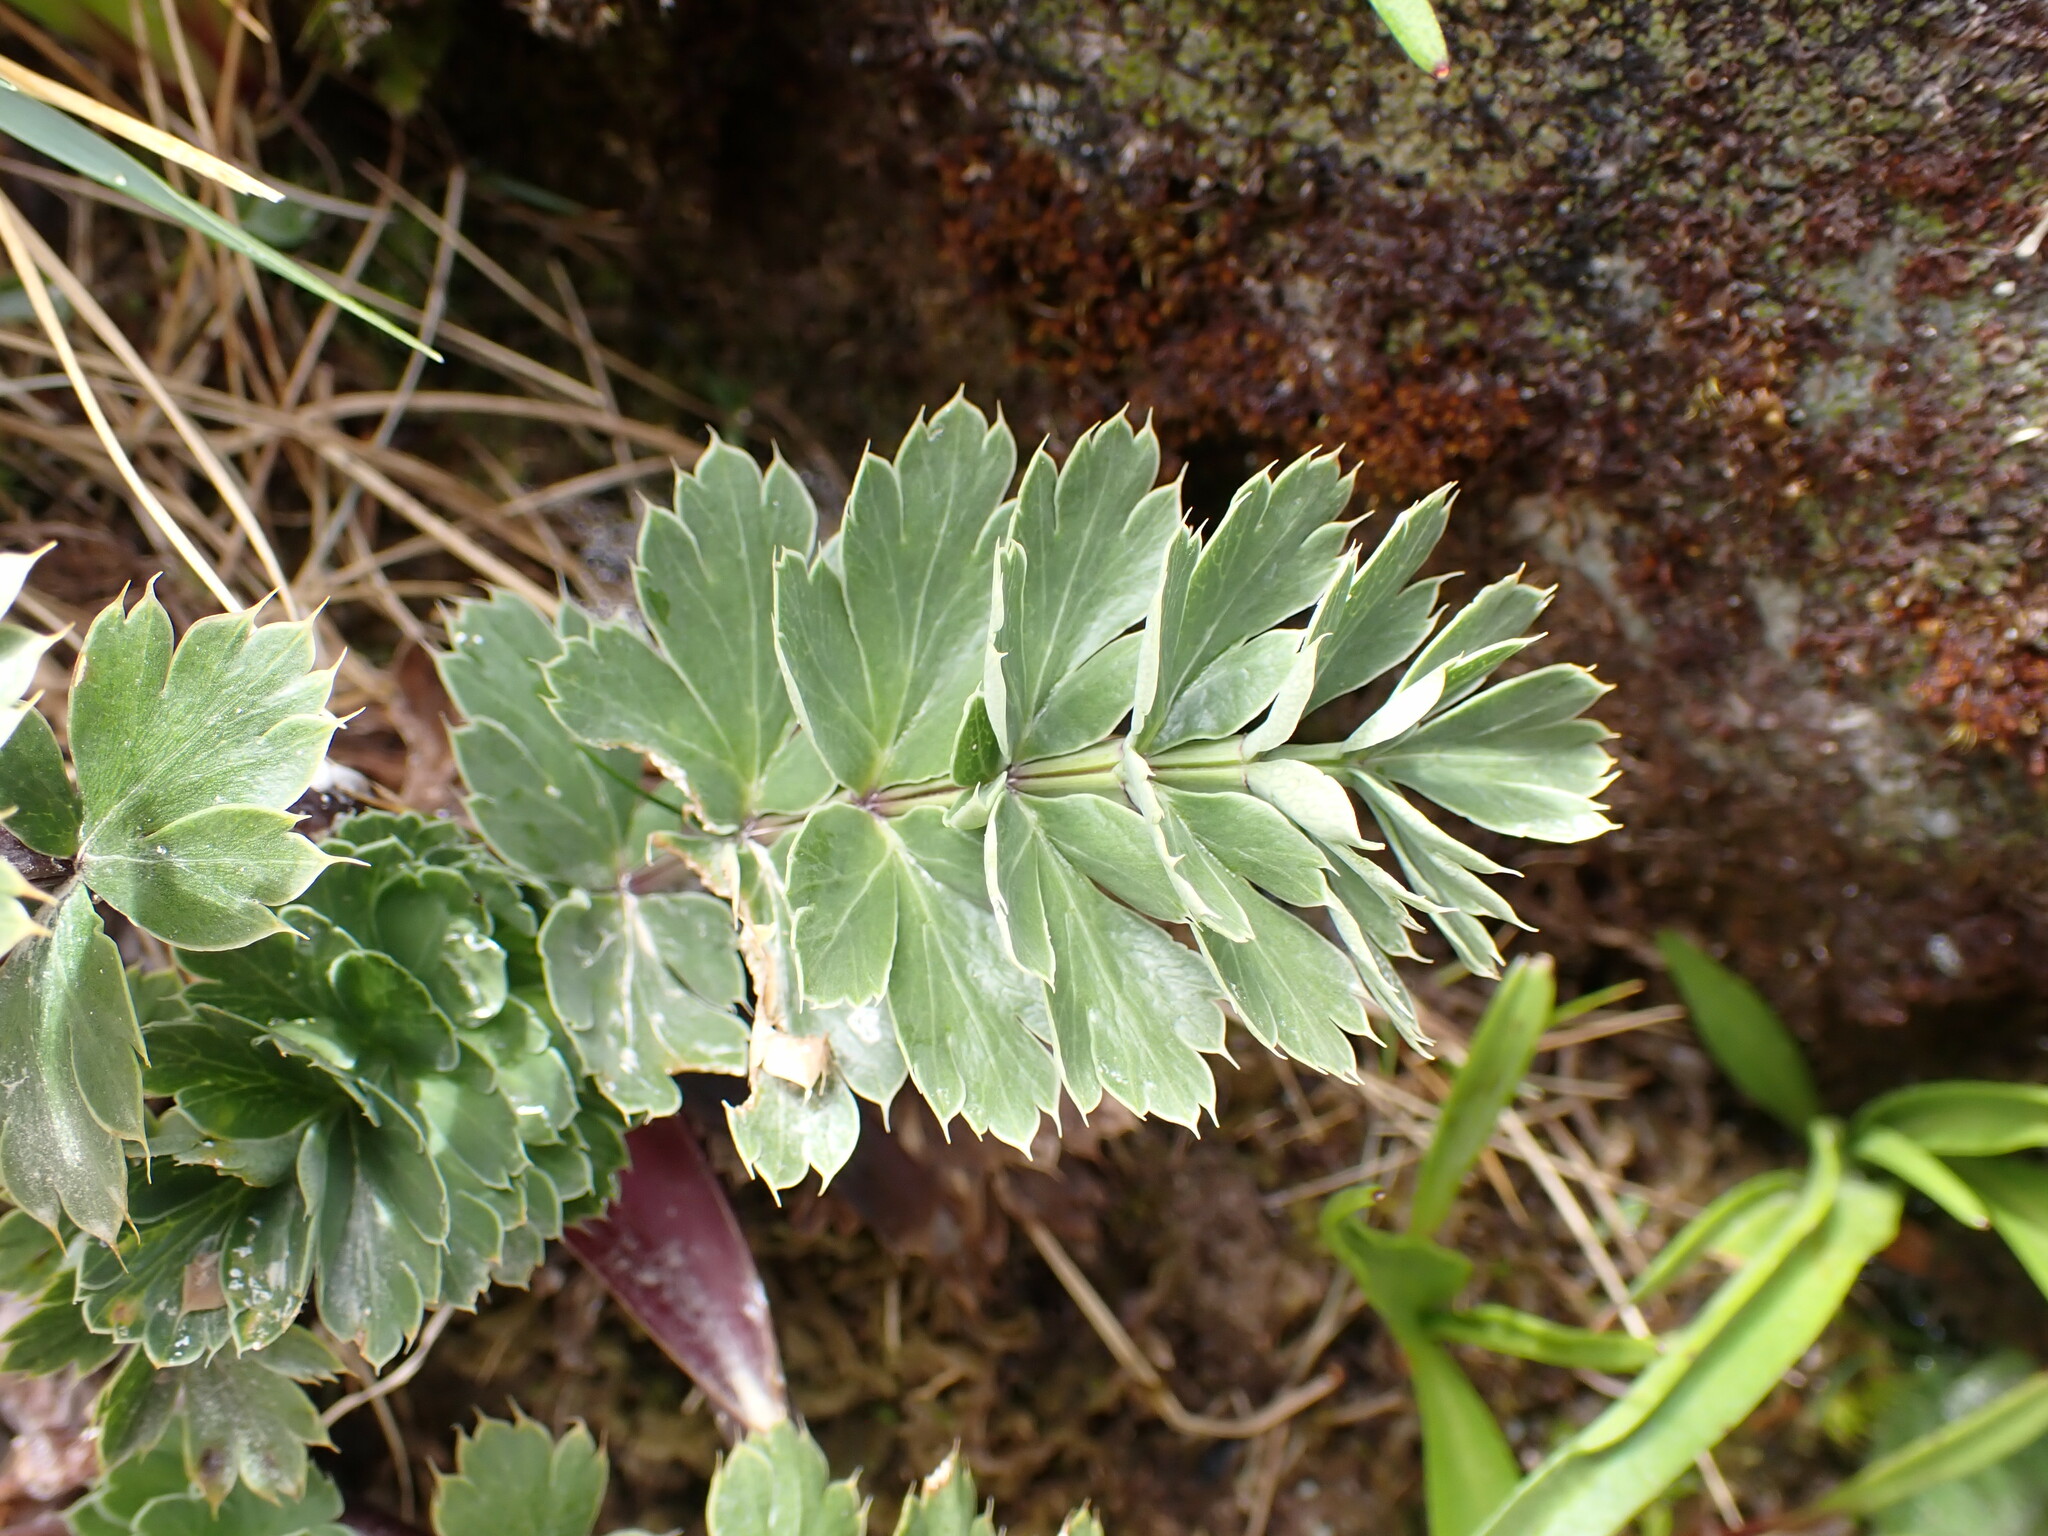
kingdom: Plantae
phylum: Tracheophyta
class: Magnoliopsida
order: Apiales
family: Apiaceae
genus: Anisotome
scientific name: Anisotome pilifera
